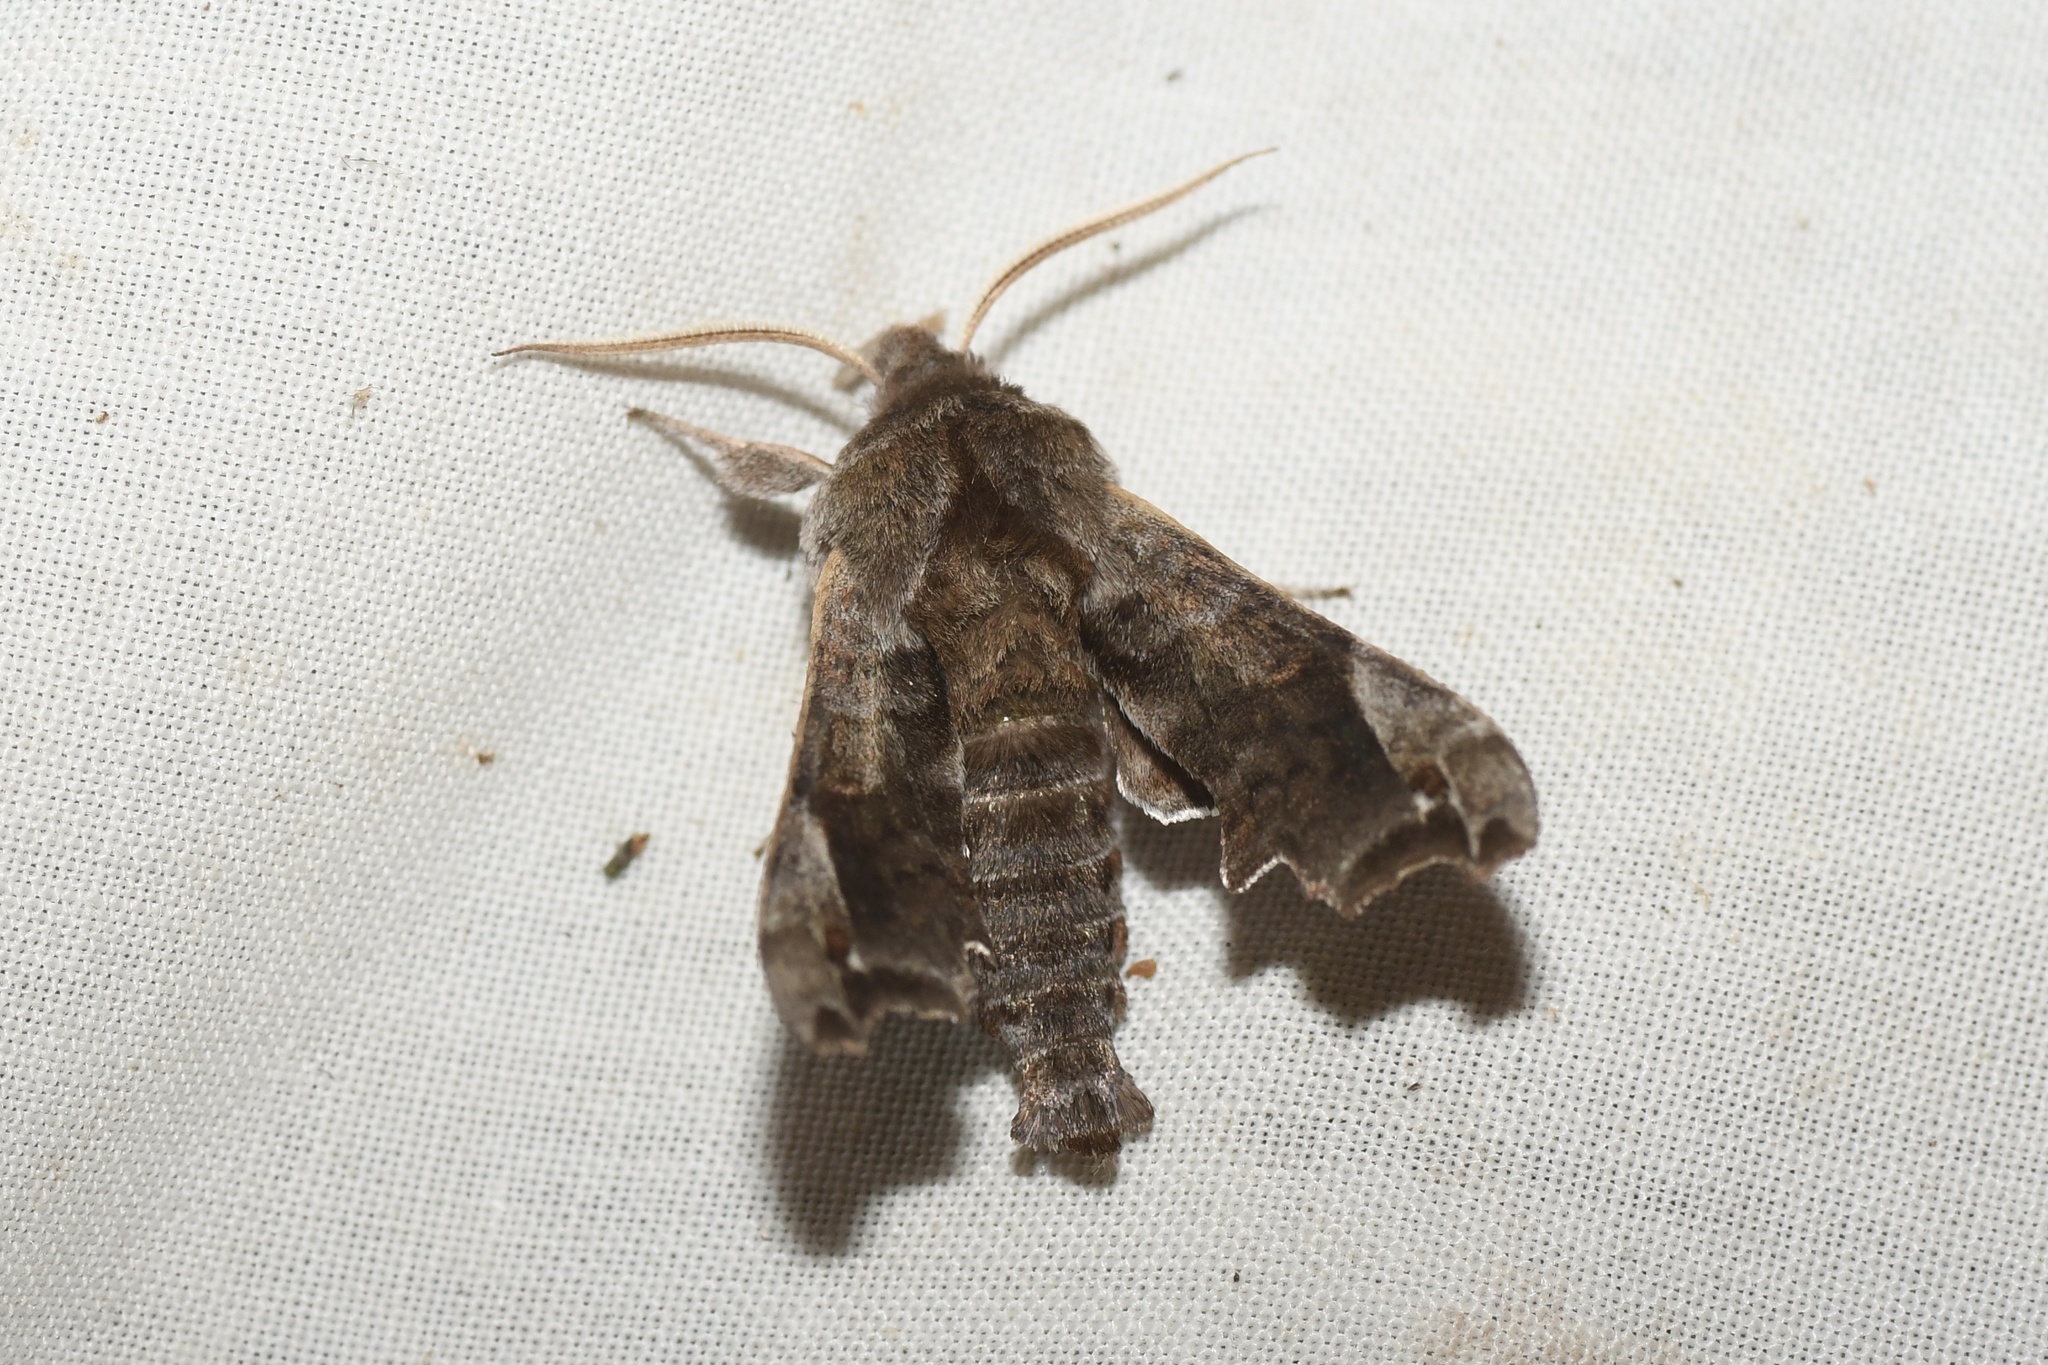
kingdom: Animalia
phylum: Arthropoda
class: Insecta
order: Lepidoptera
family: Sphingidae
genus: Deidamia
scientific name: Deidamia inscriptum
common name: Lettered sphinx
